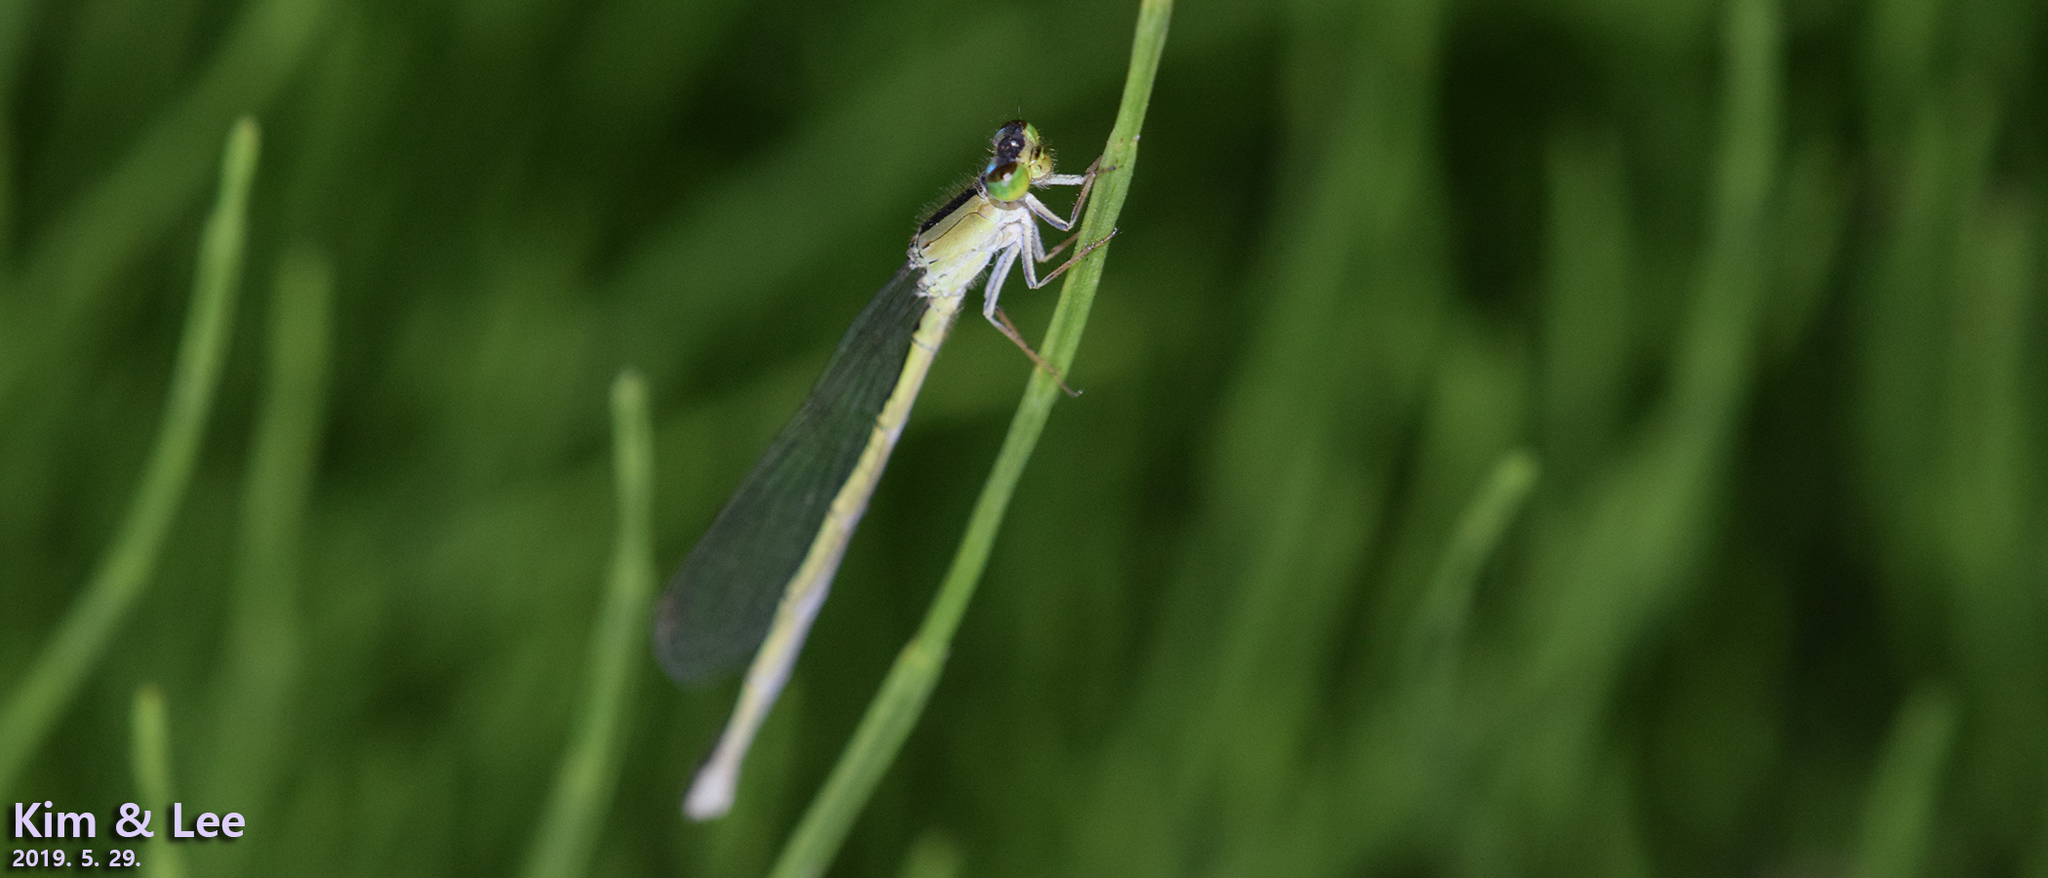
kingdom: Animalia
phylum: Arthropoda
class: Insecta
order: Odonata
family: Coenagrionidae
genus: Ischnura
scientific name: Ischnura asiatica
